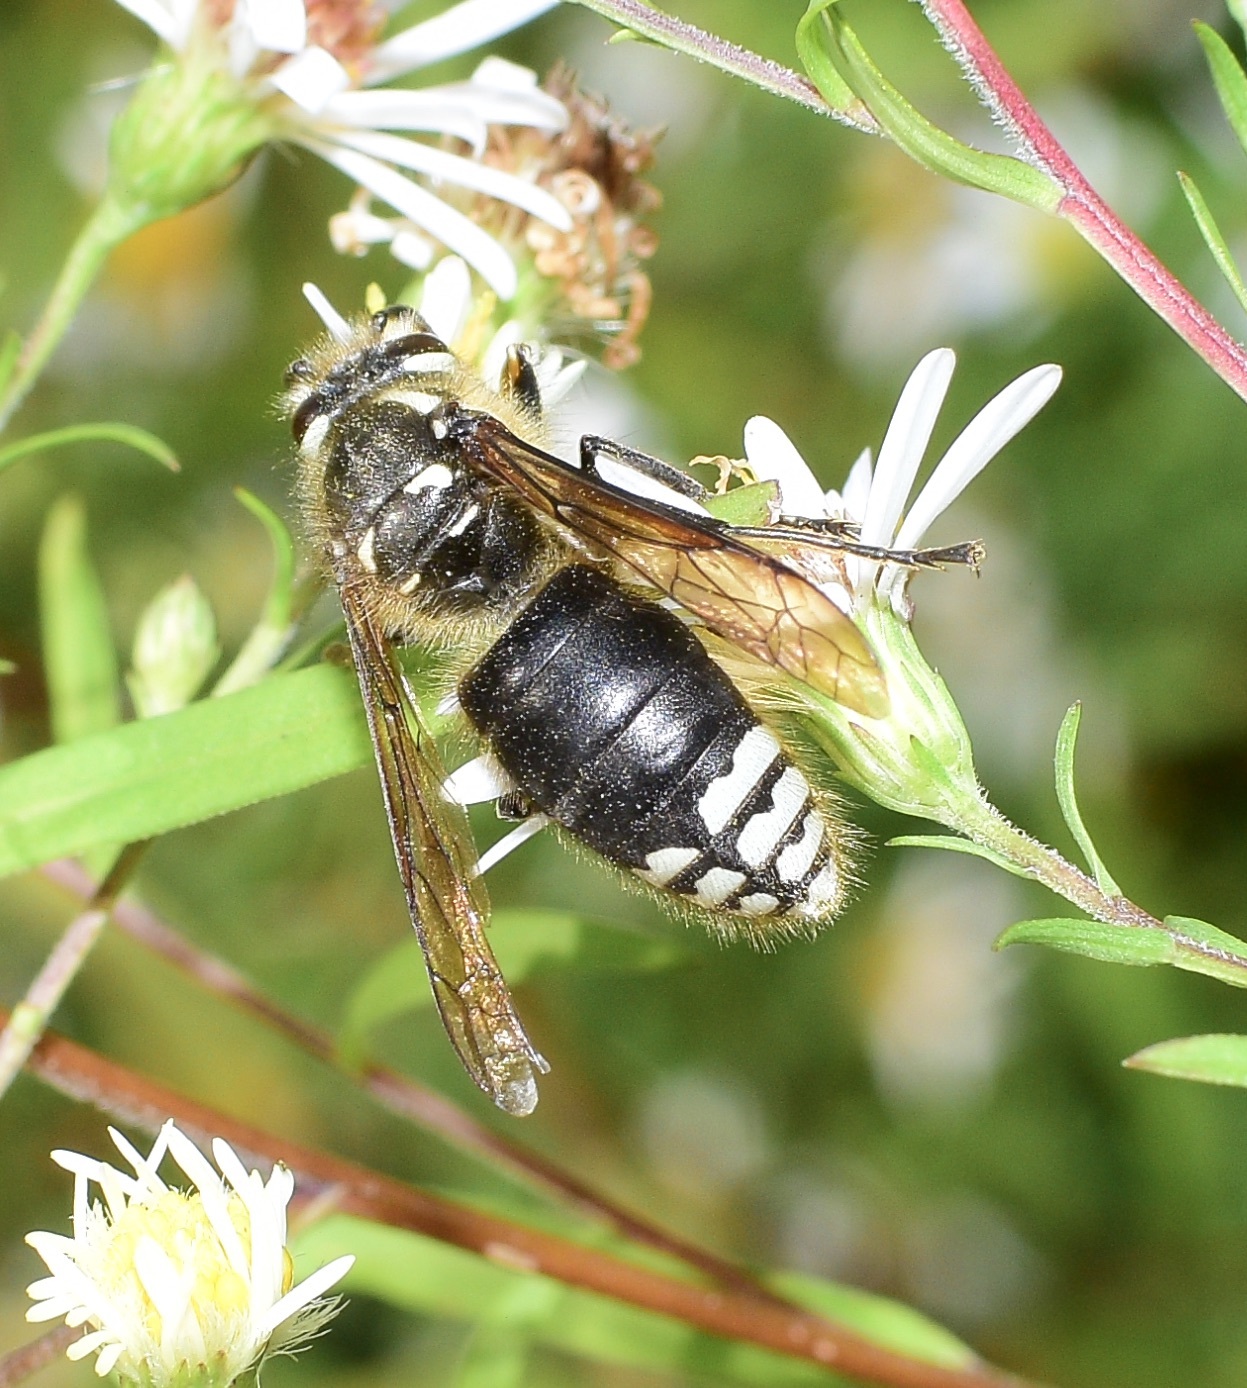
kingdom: Animalia
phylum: Arthropoda
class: Insecta
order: Hymenoptera
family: Vespidae
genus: Dolichovespula
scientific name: Dolichovespula maculata
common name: Bald-faced hornet
